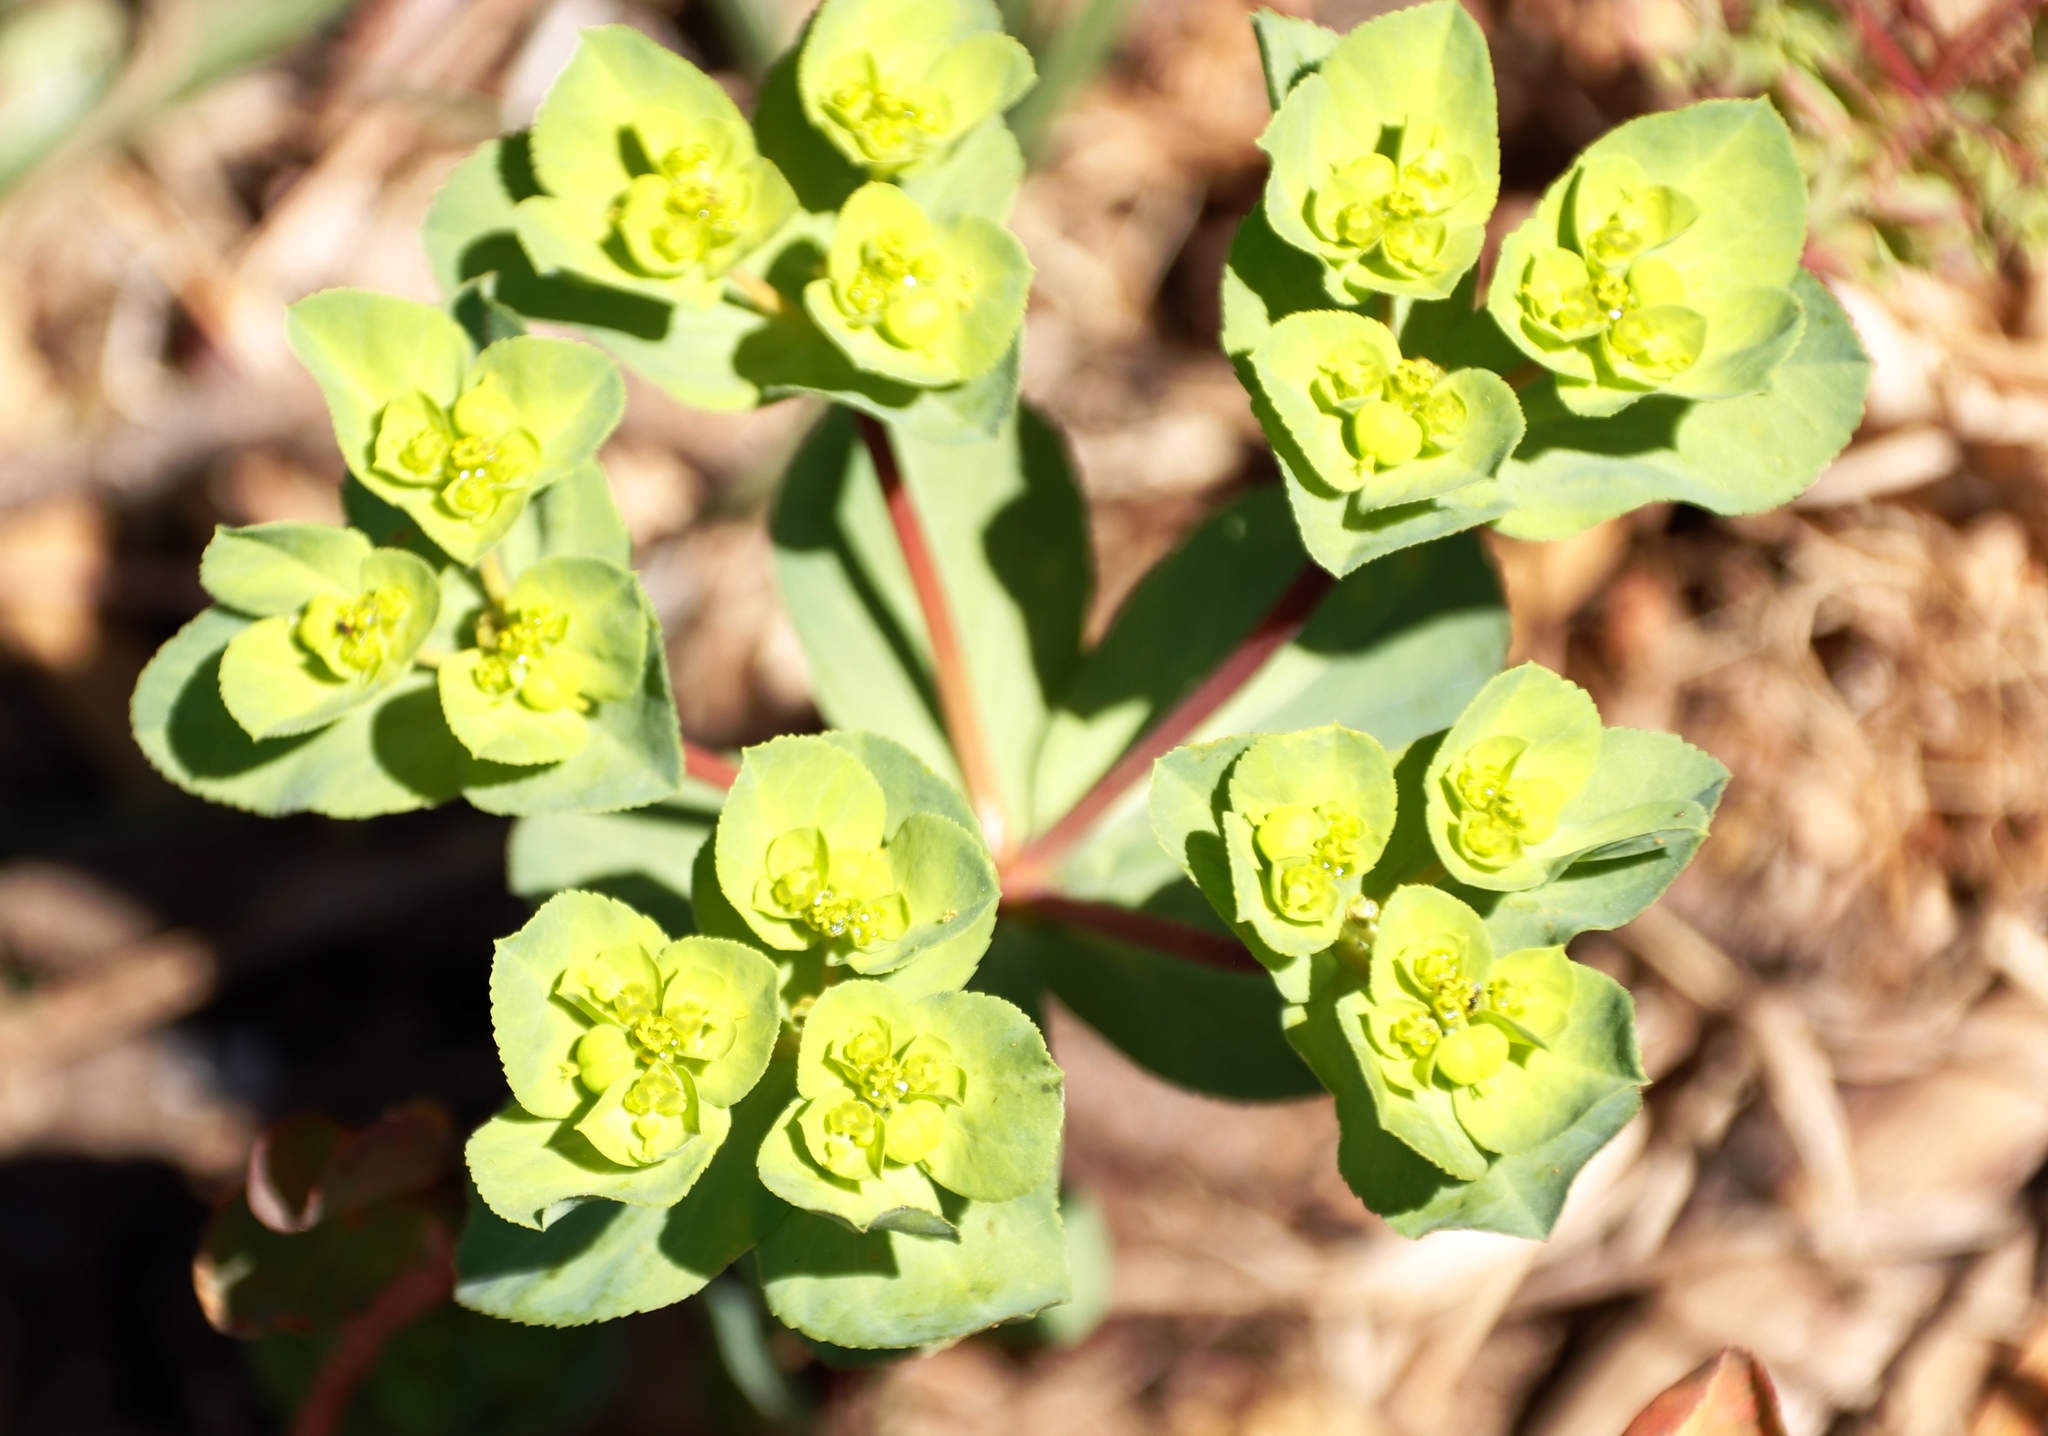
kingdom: Plantae
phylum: Tracheophyta
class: Magnoliopsida
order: Malpighiales
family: Euphorbiaceae
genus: Euphorbia
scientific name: Euphorbia helioscopia
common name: Sun spurge
